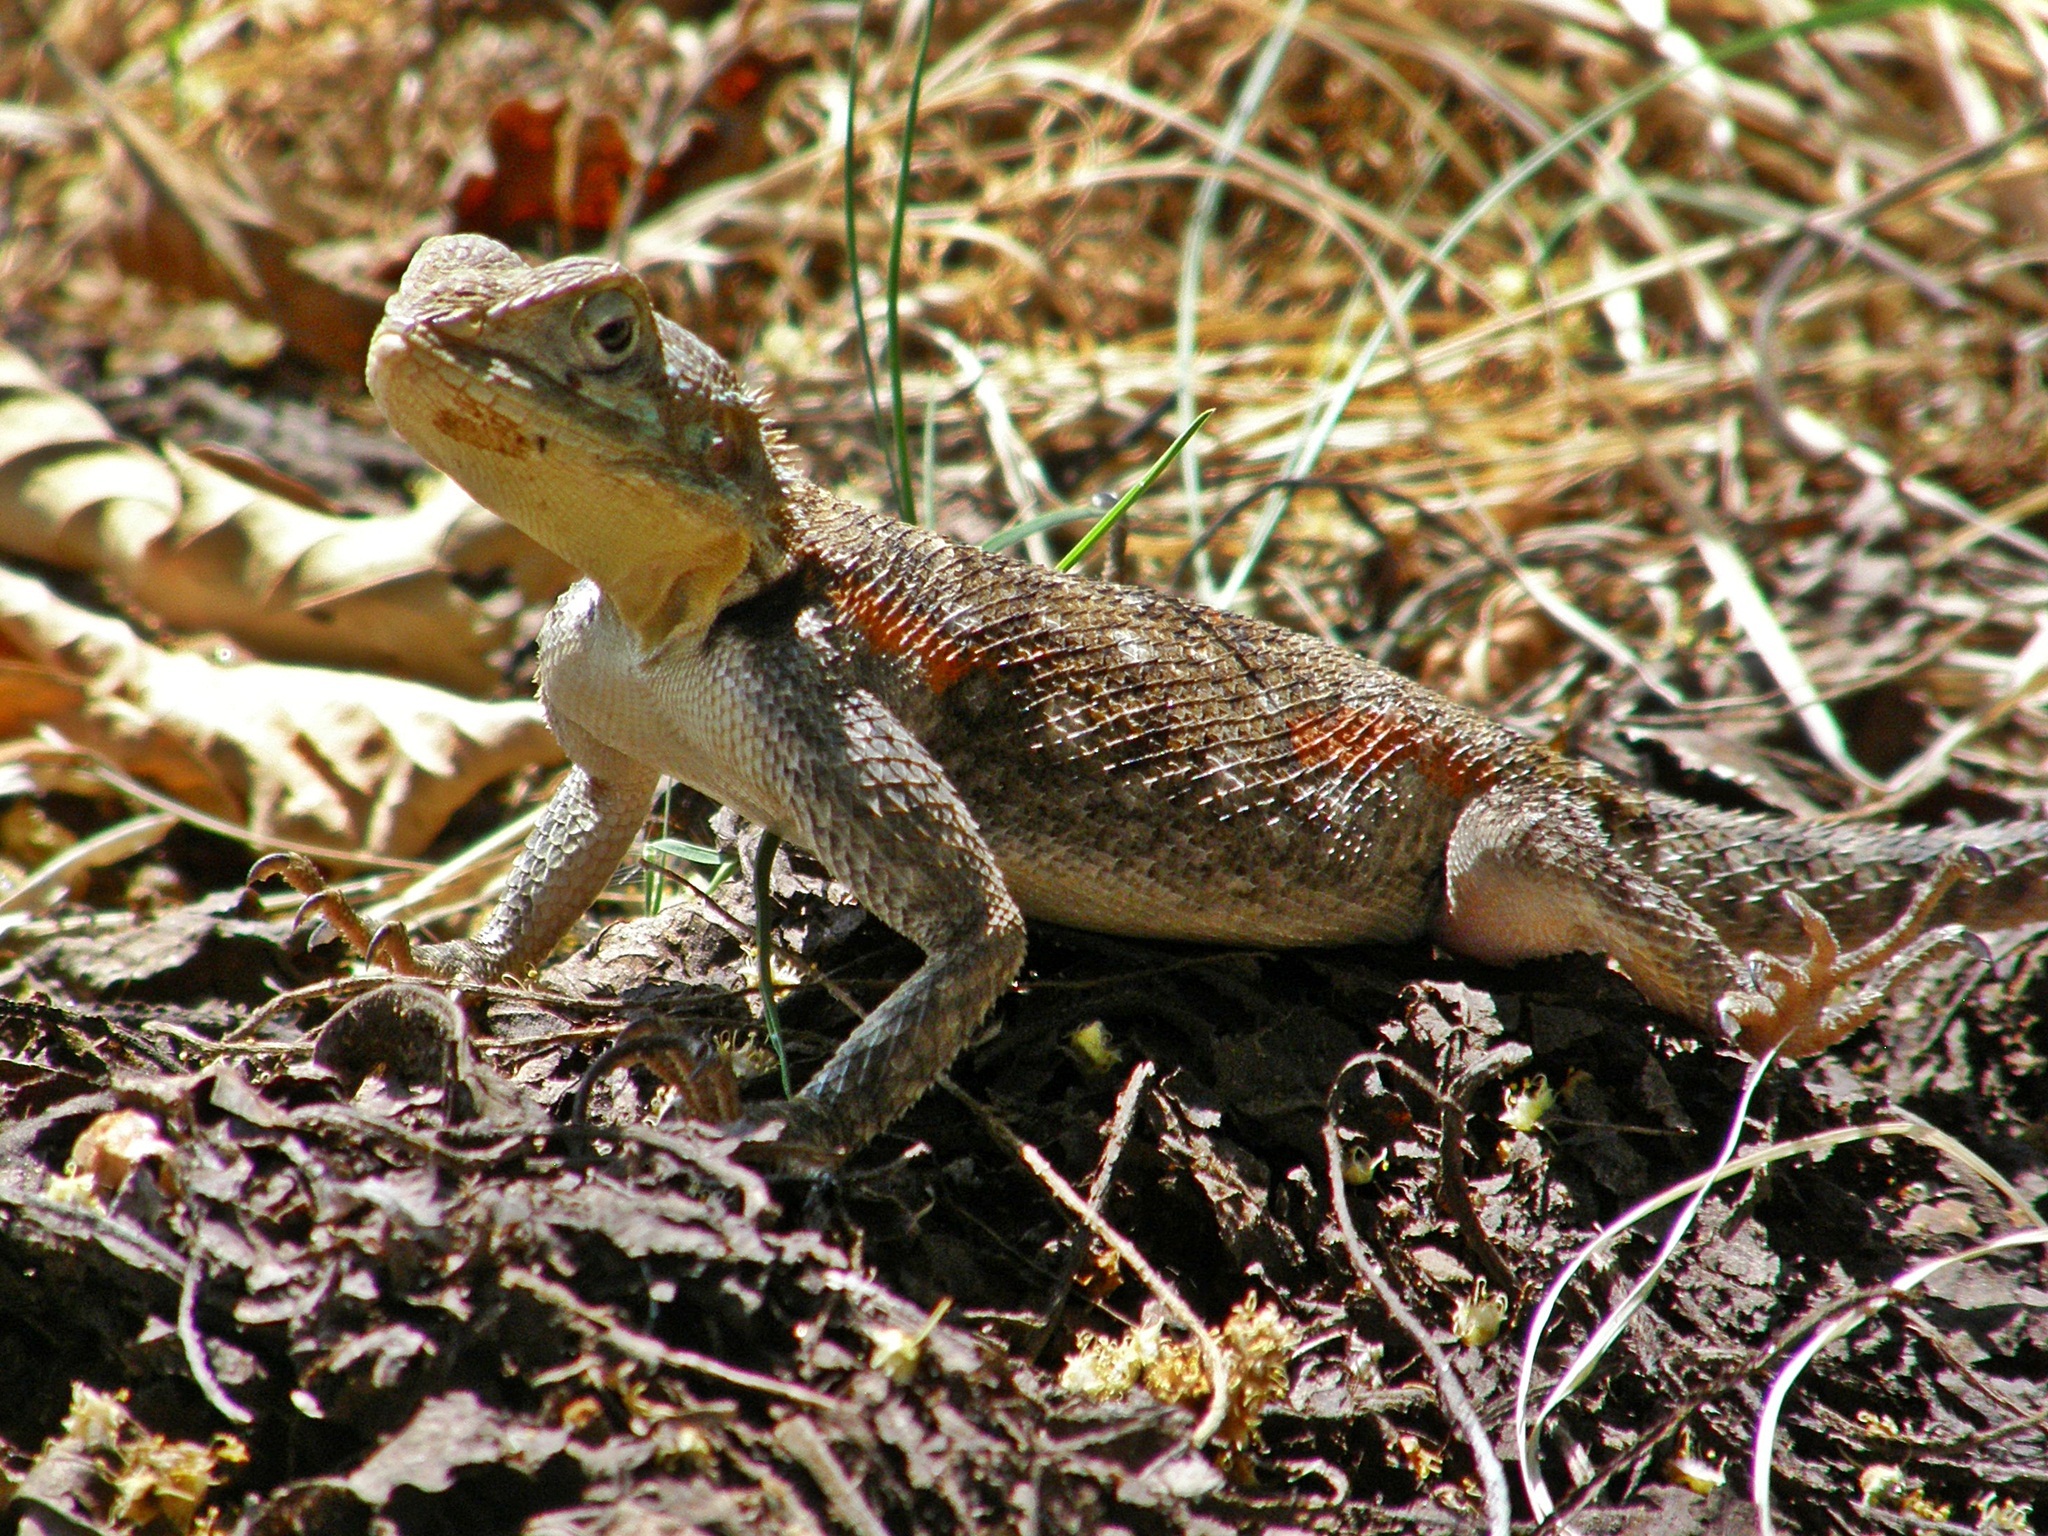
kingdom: Animalia
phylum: Chordata
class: Squamata
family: Agamidae
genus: Agama
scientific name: Agama lionotus
